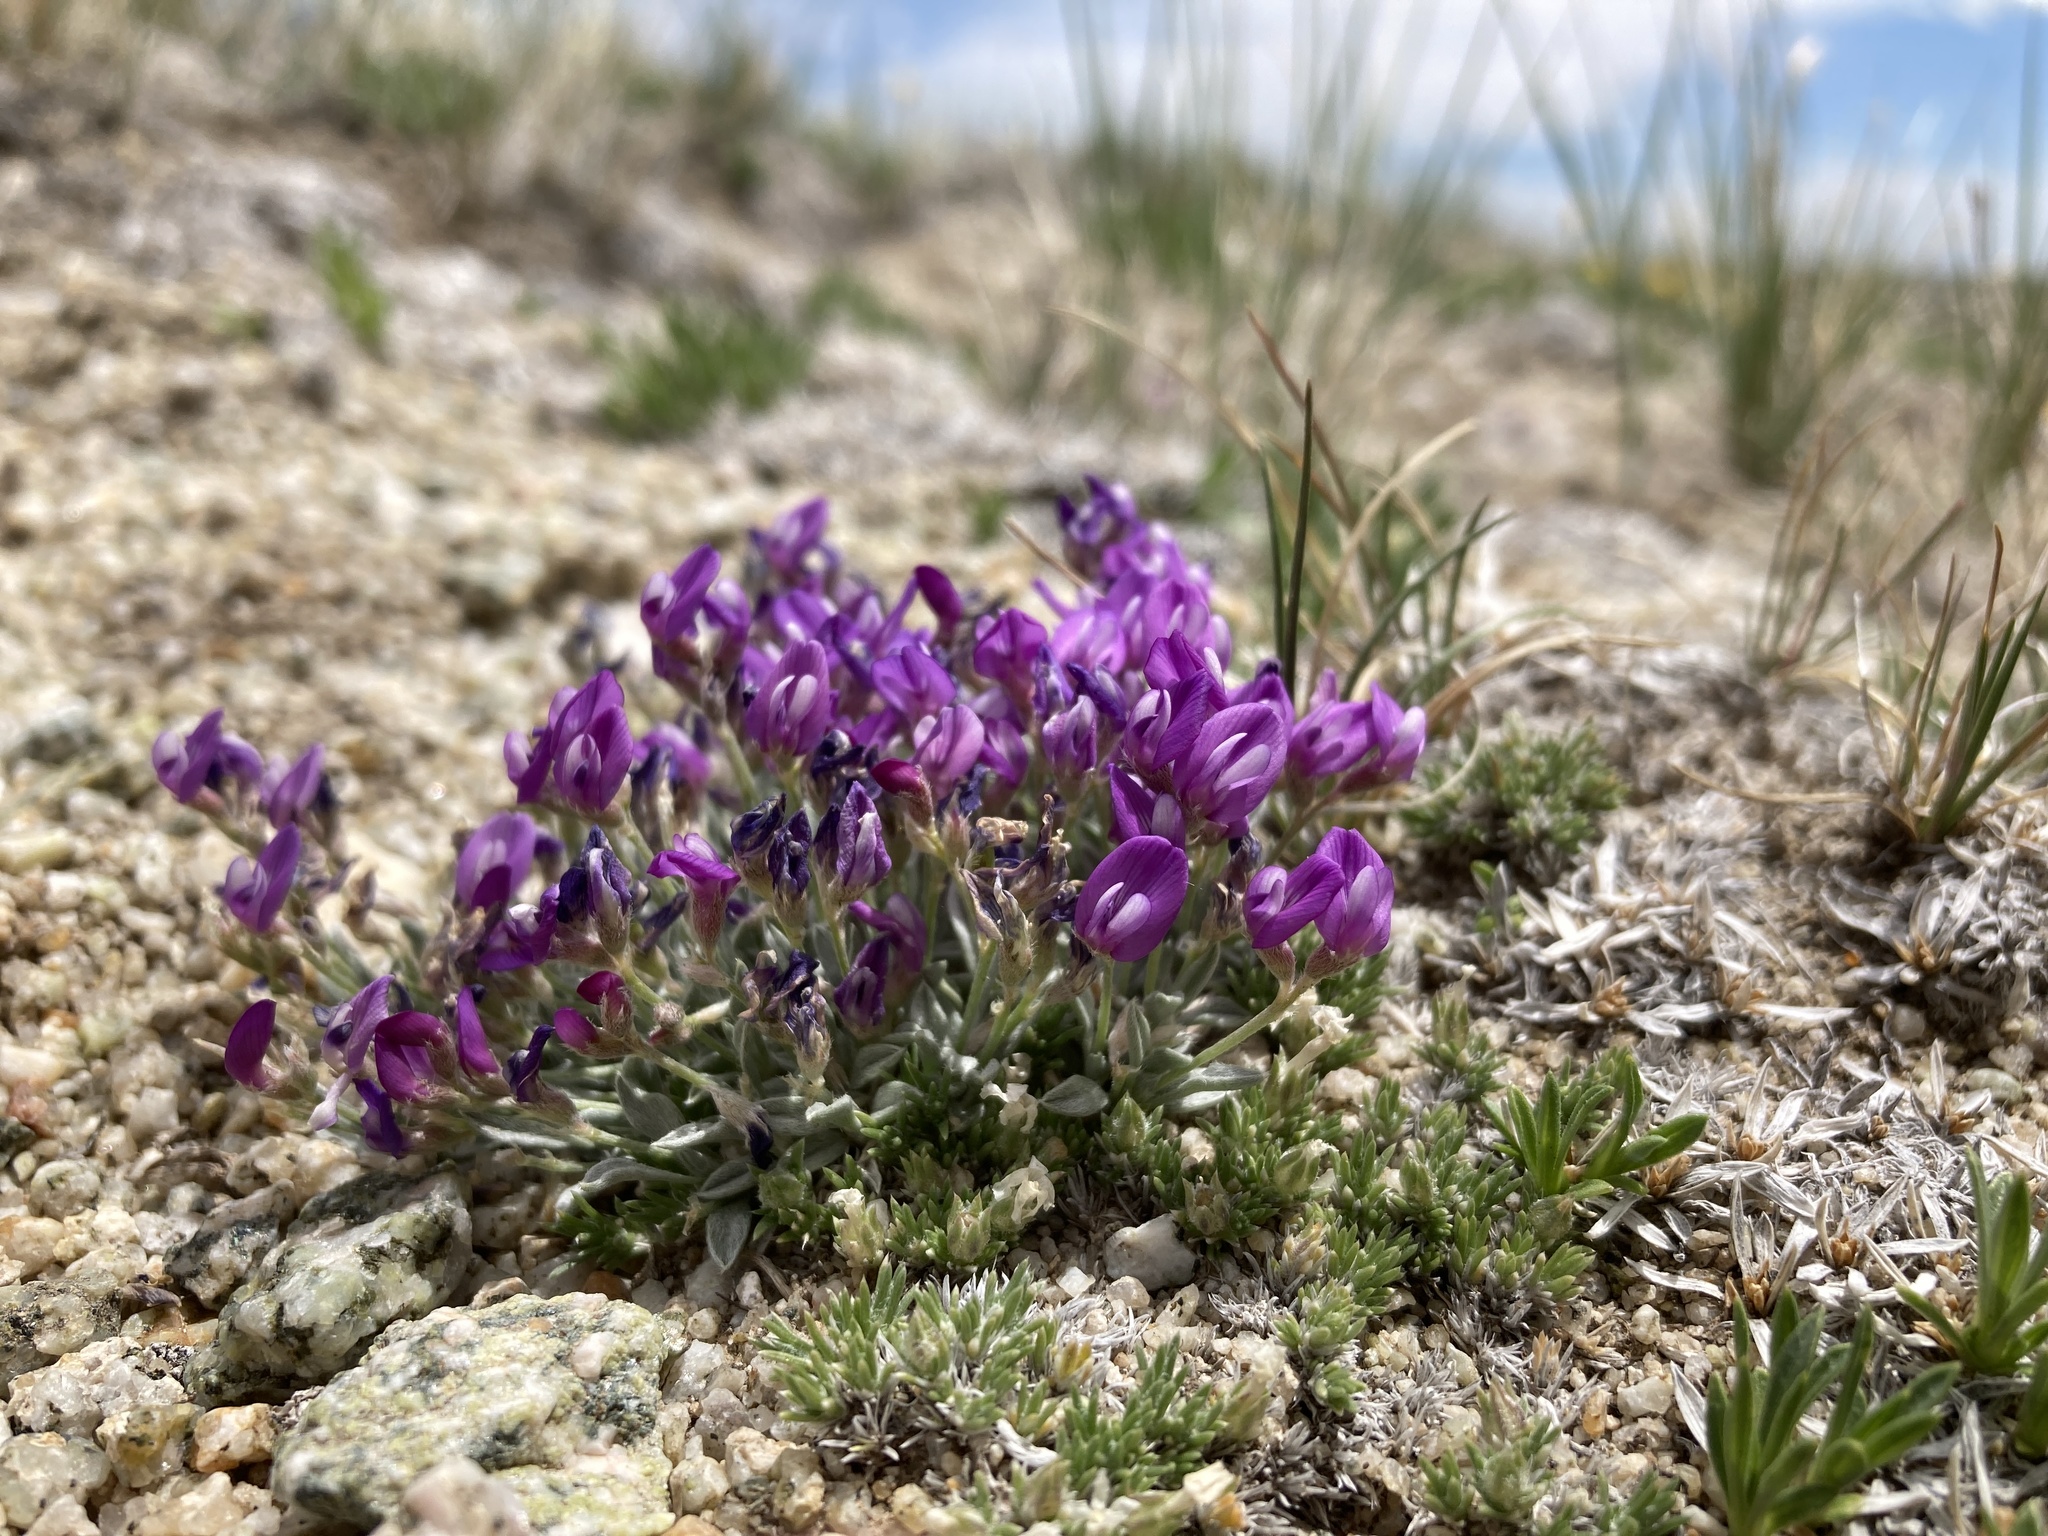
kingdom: Plantae
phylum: Tracheophyta
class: Magnoliopsida
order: Fabales
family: Fabaceae
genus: Astragalus
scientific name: Astragalus spatulatus
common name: Draba milk-vetch
